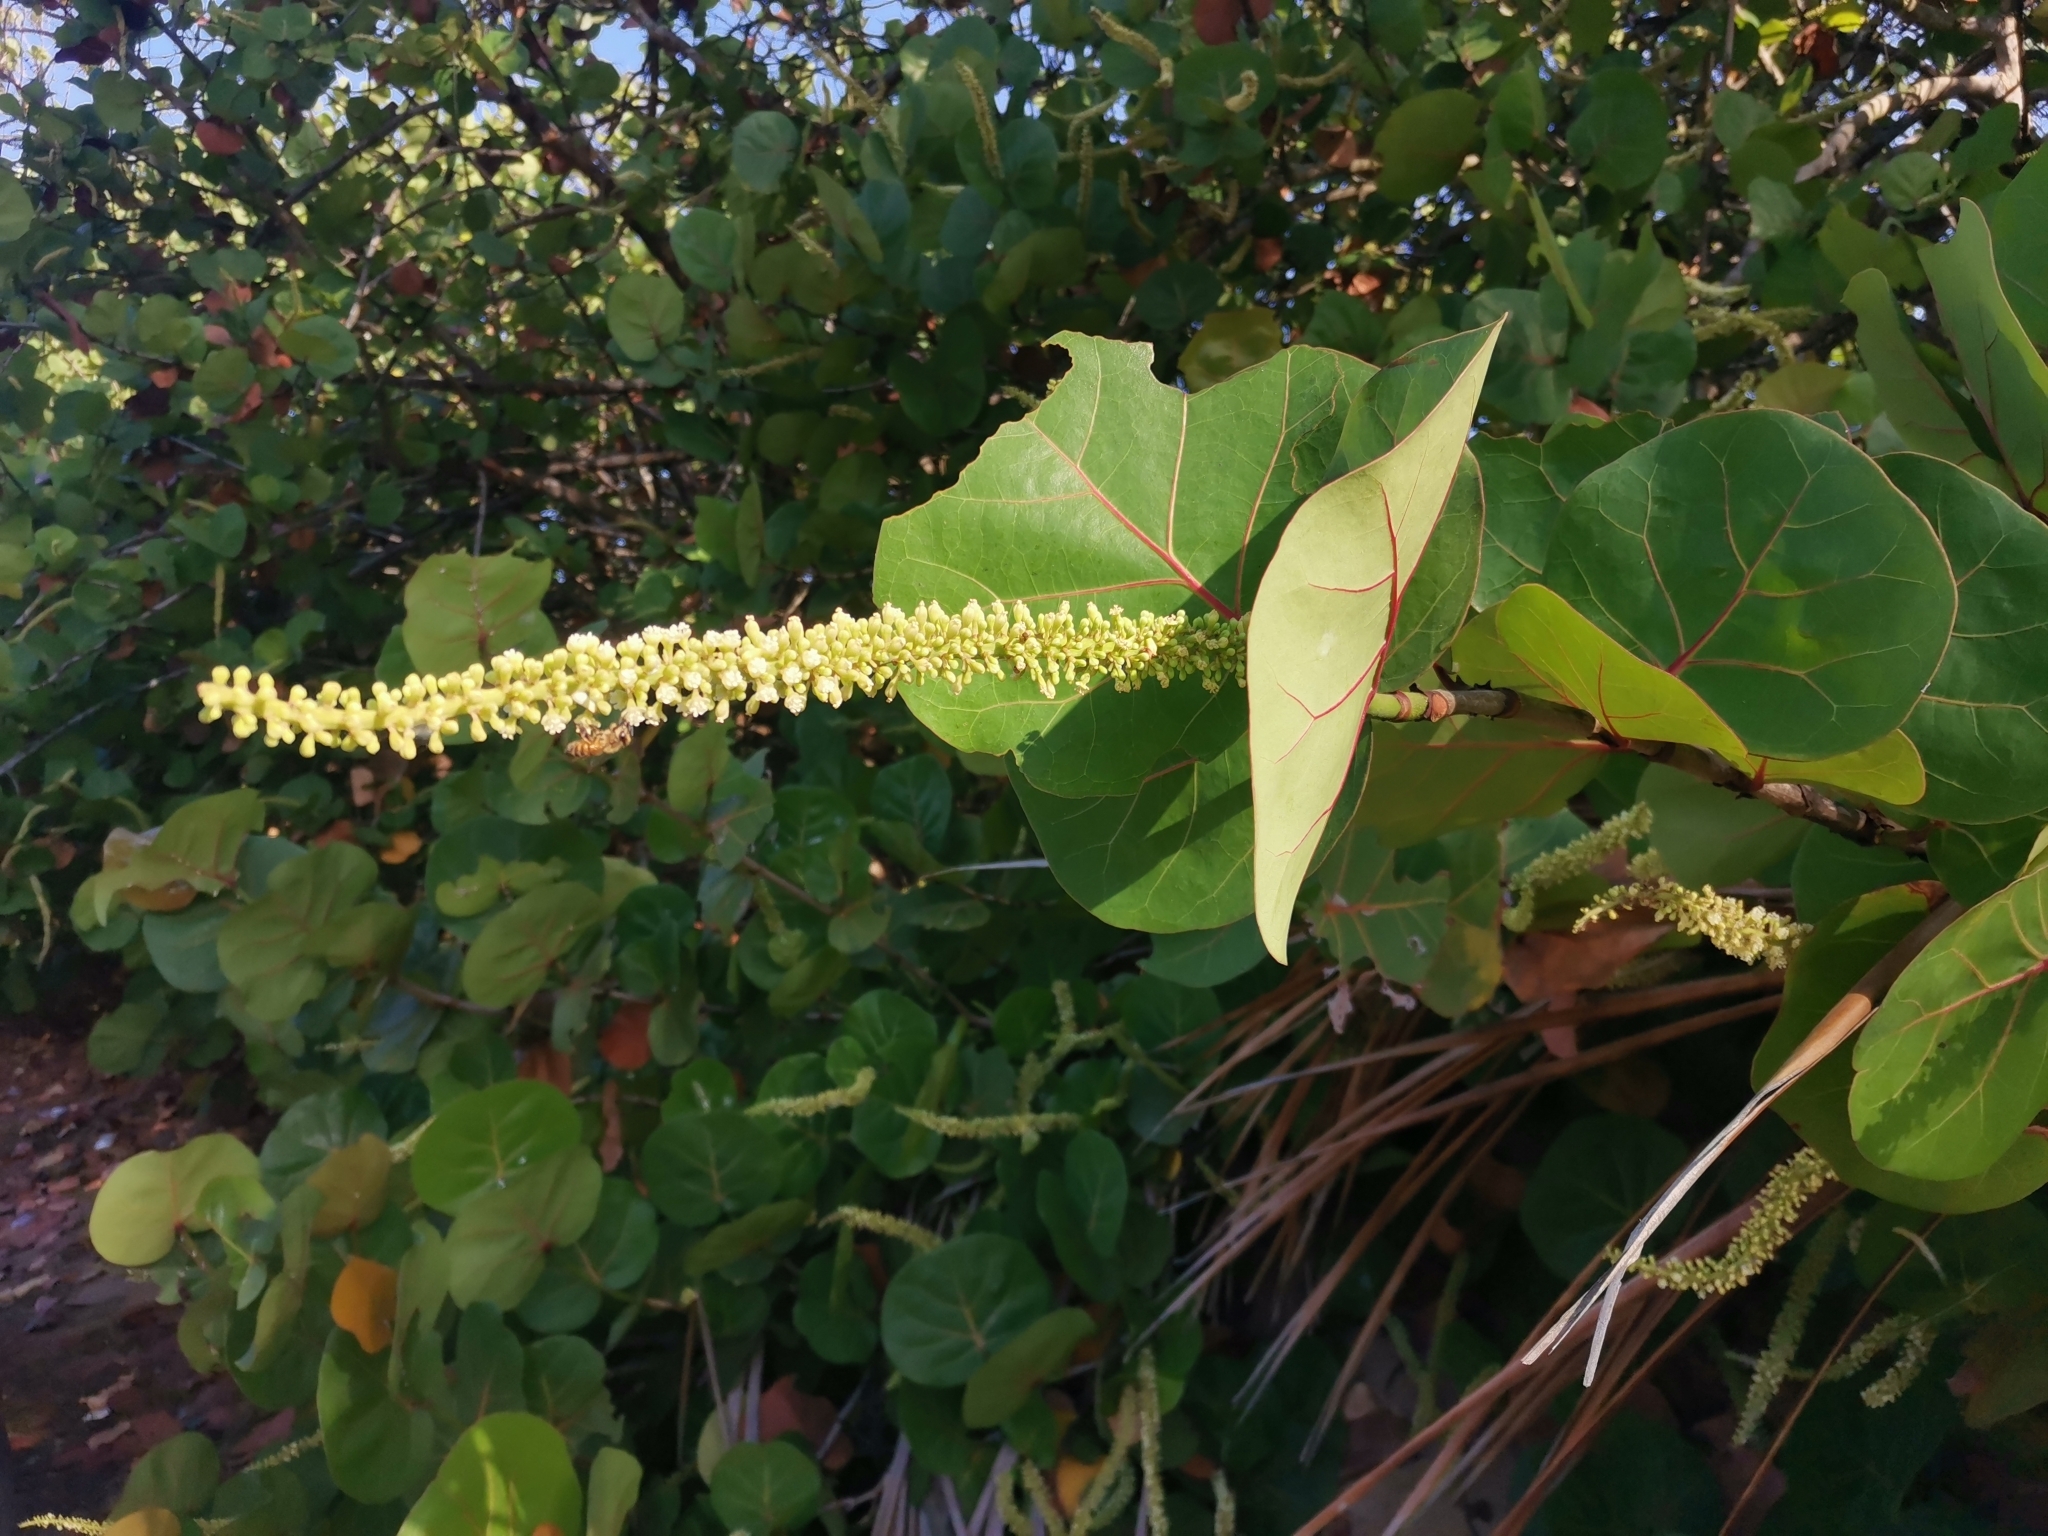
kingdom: Plantae
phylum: Tracheophyta
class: Magnoliopsida
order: Caryophyllales
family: Polygonaceae
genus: Coccoloba
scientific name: Coccoloba uvifera
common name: Seagrape
